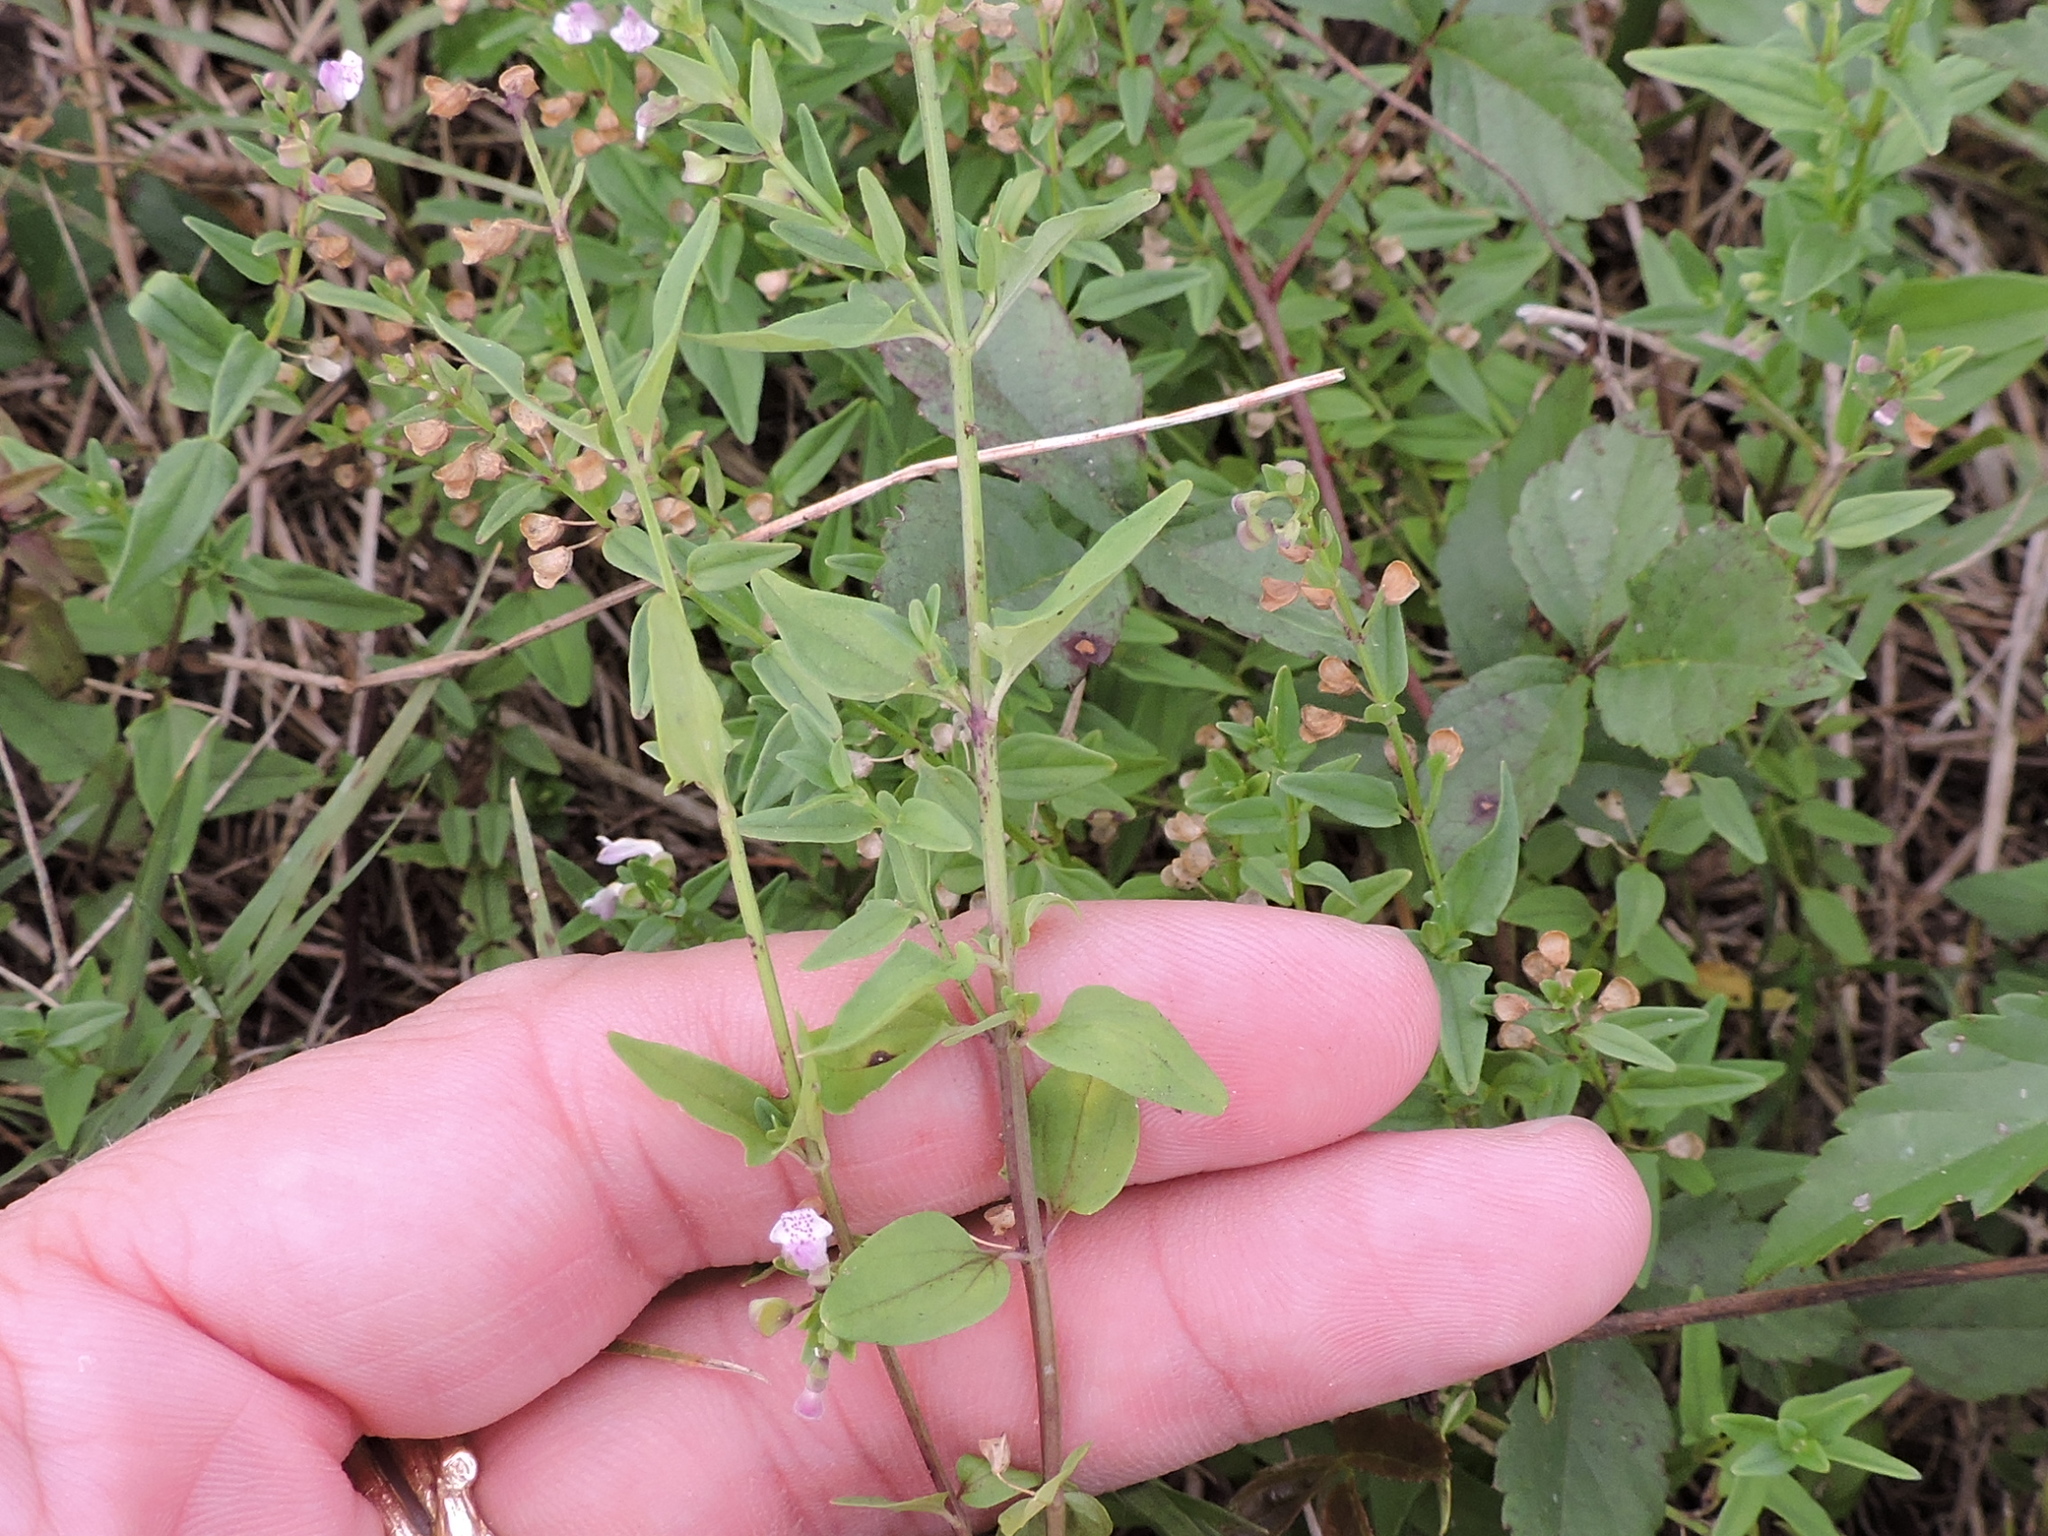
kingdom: Plantae
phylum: Tracheophyta
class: Magnoliopsida
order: Lamiales
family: Lamiaceae
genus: Scutellaria
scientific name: Scutellaria racemosa
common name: South american skullcap
